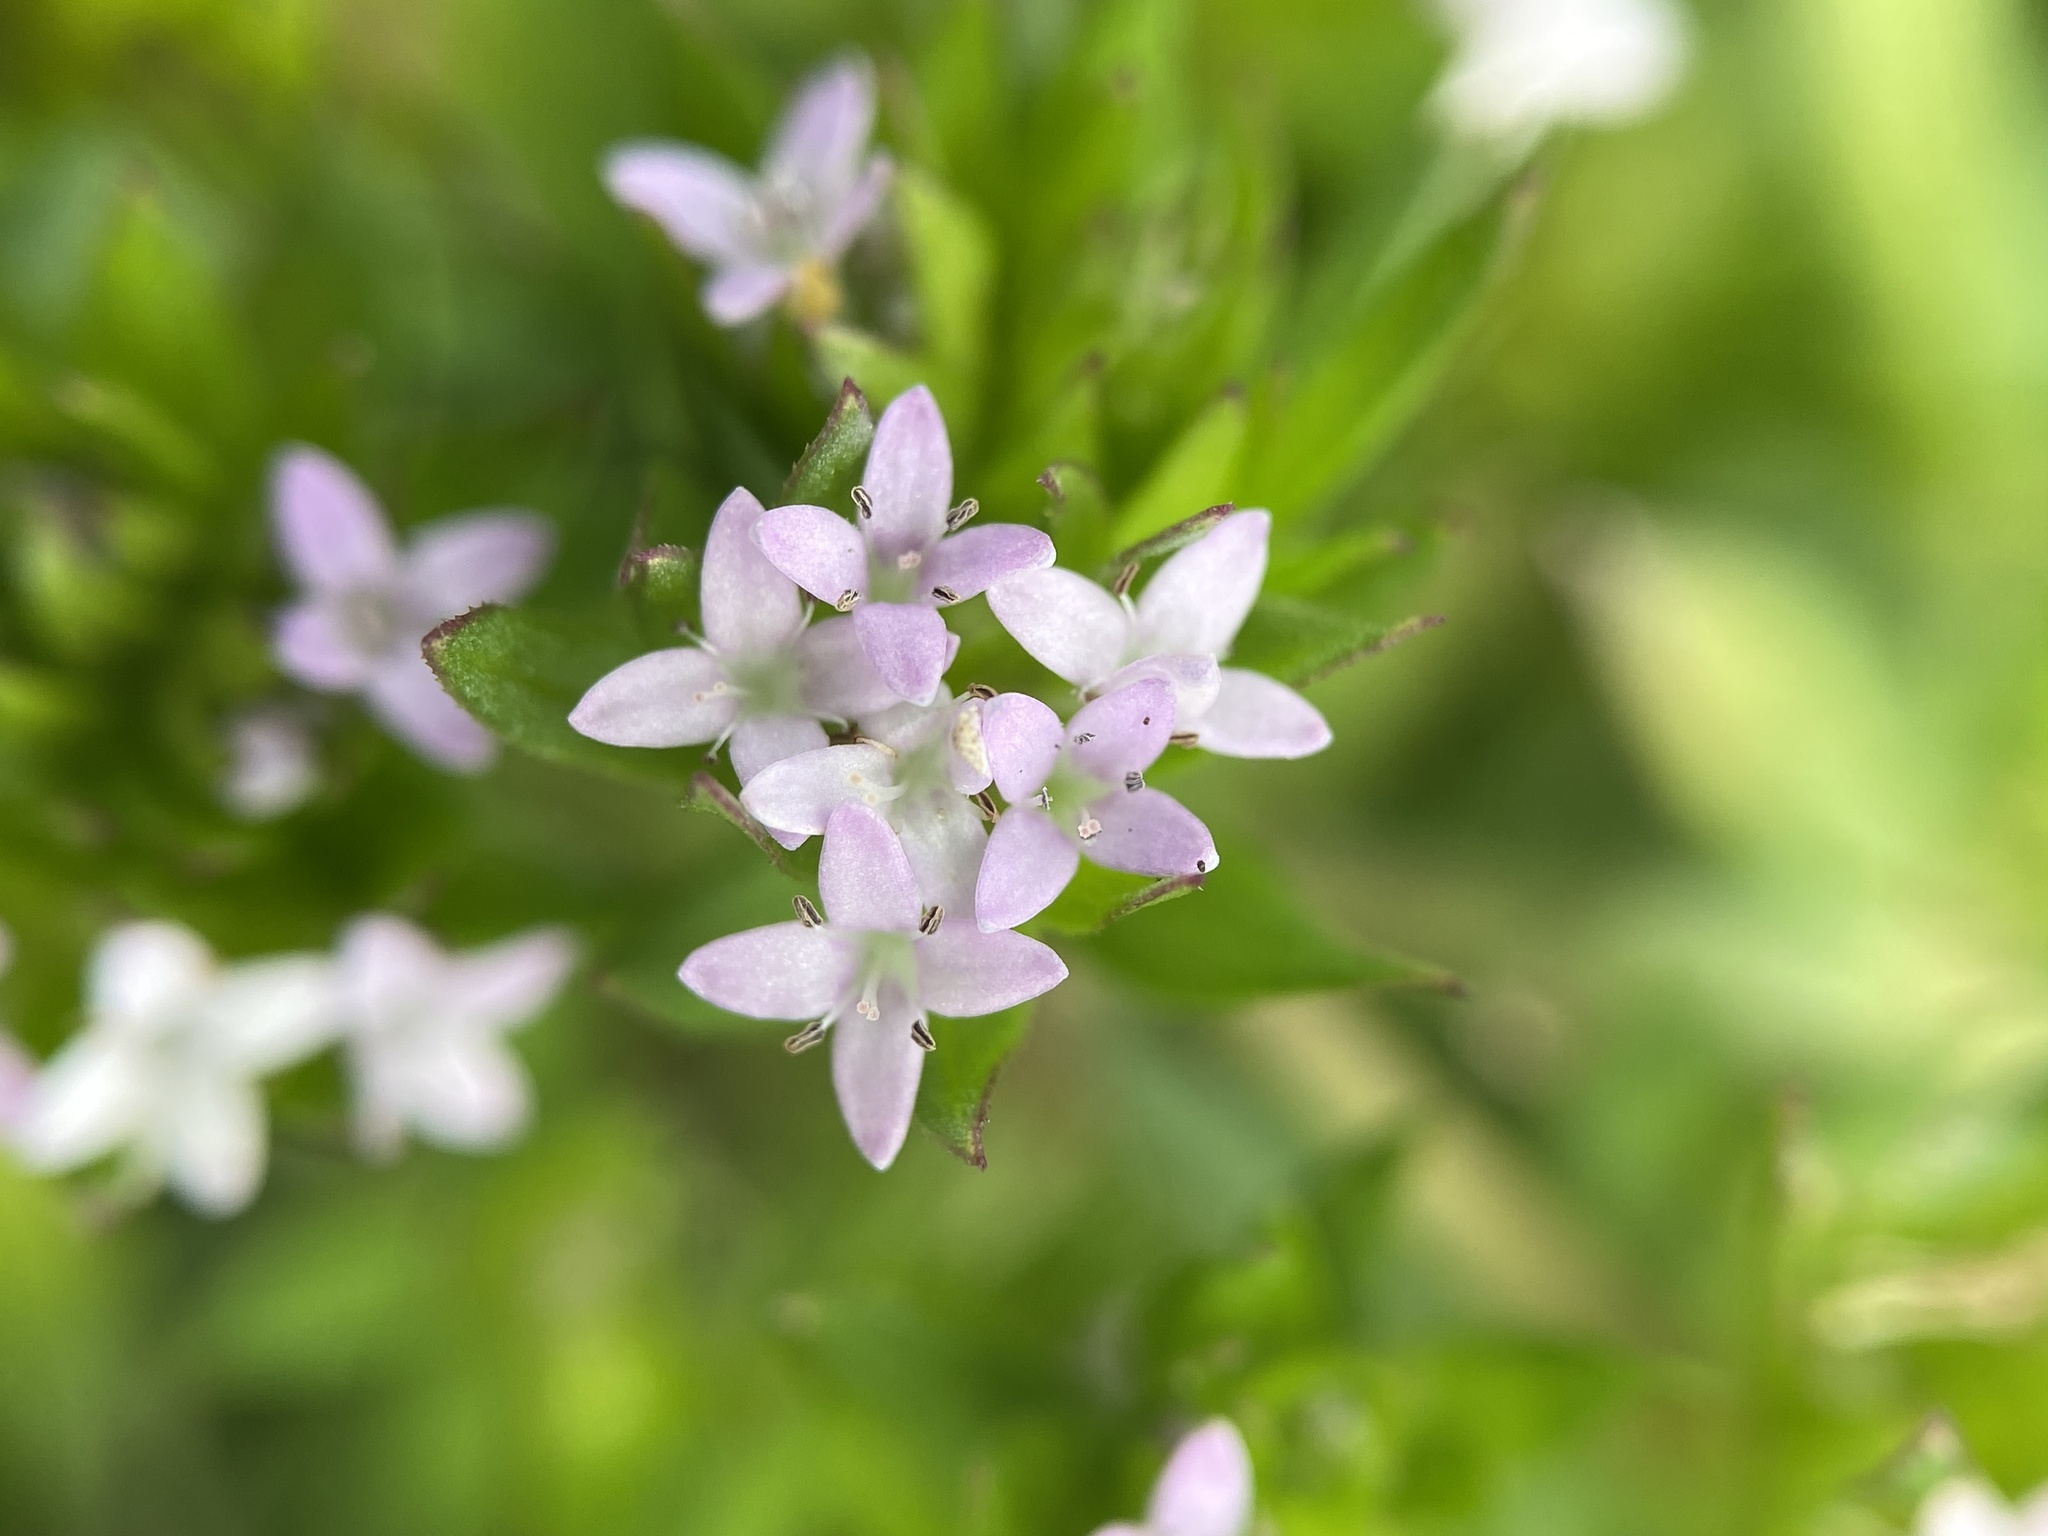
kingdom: Plantae
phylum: Tracheophyta
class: Magnoliopsida
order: Gentianales
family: Rubiaceae
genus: Sherardia
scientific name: Sherardia arvensis
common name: Field madder
